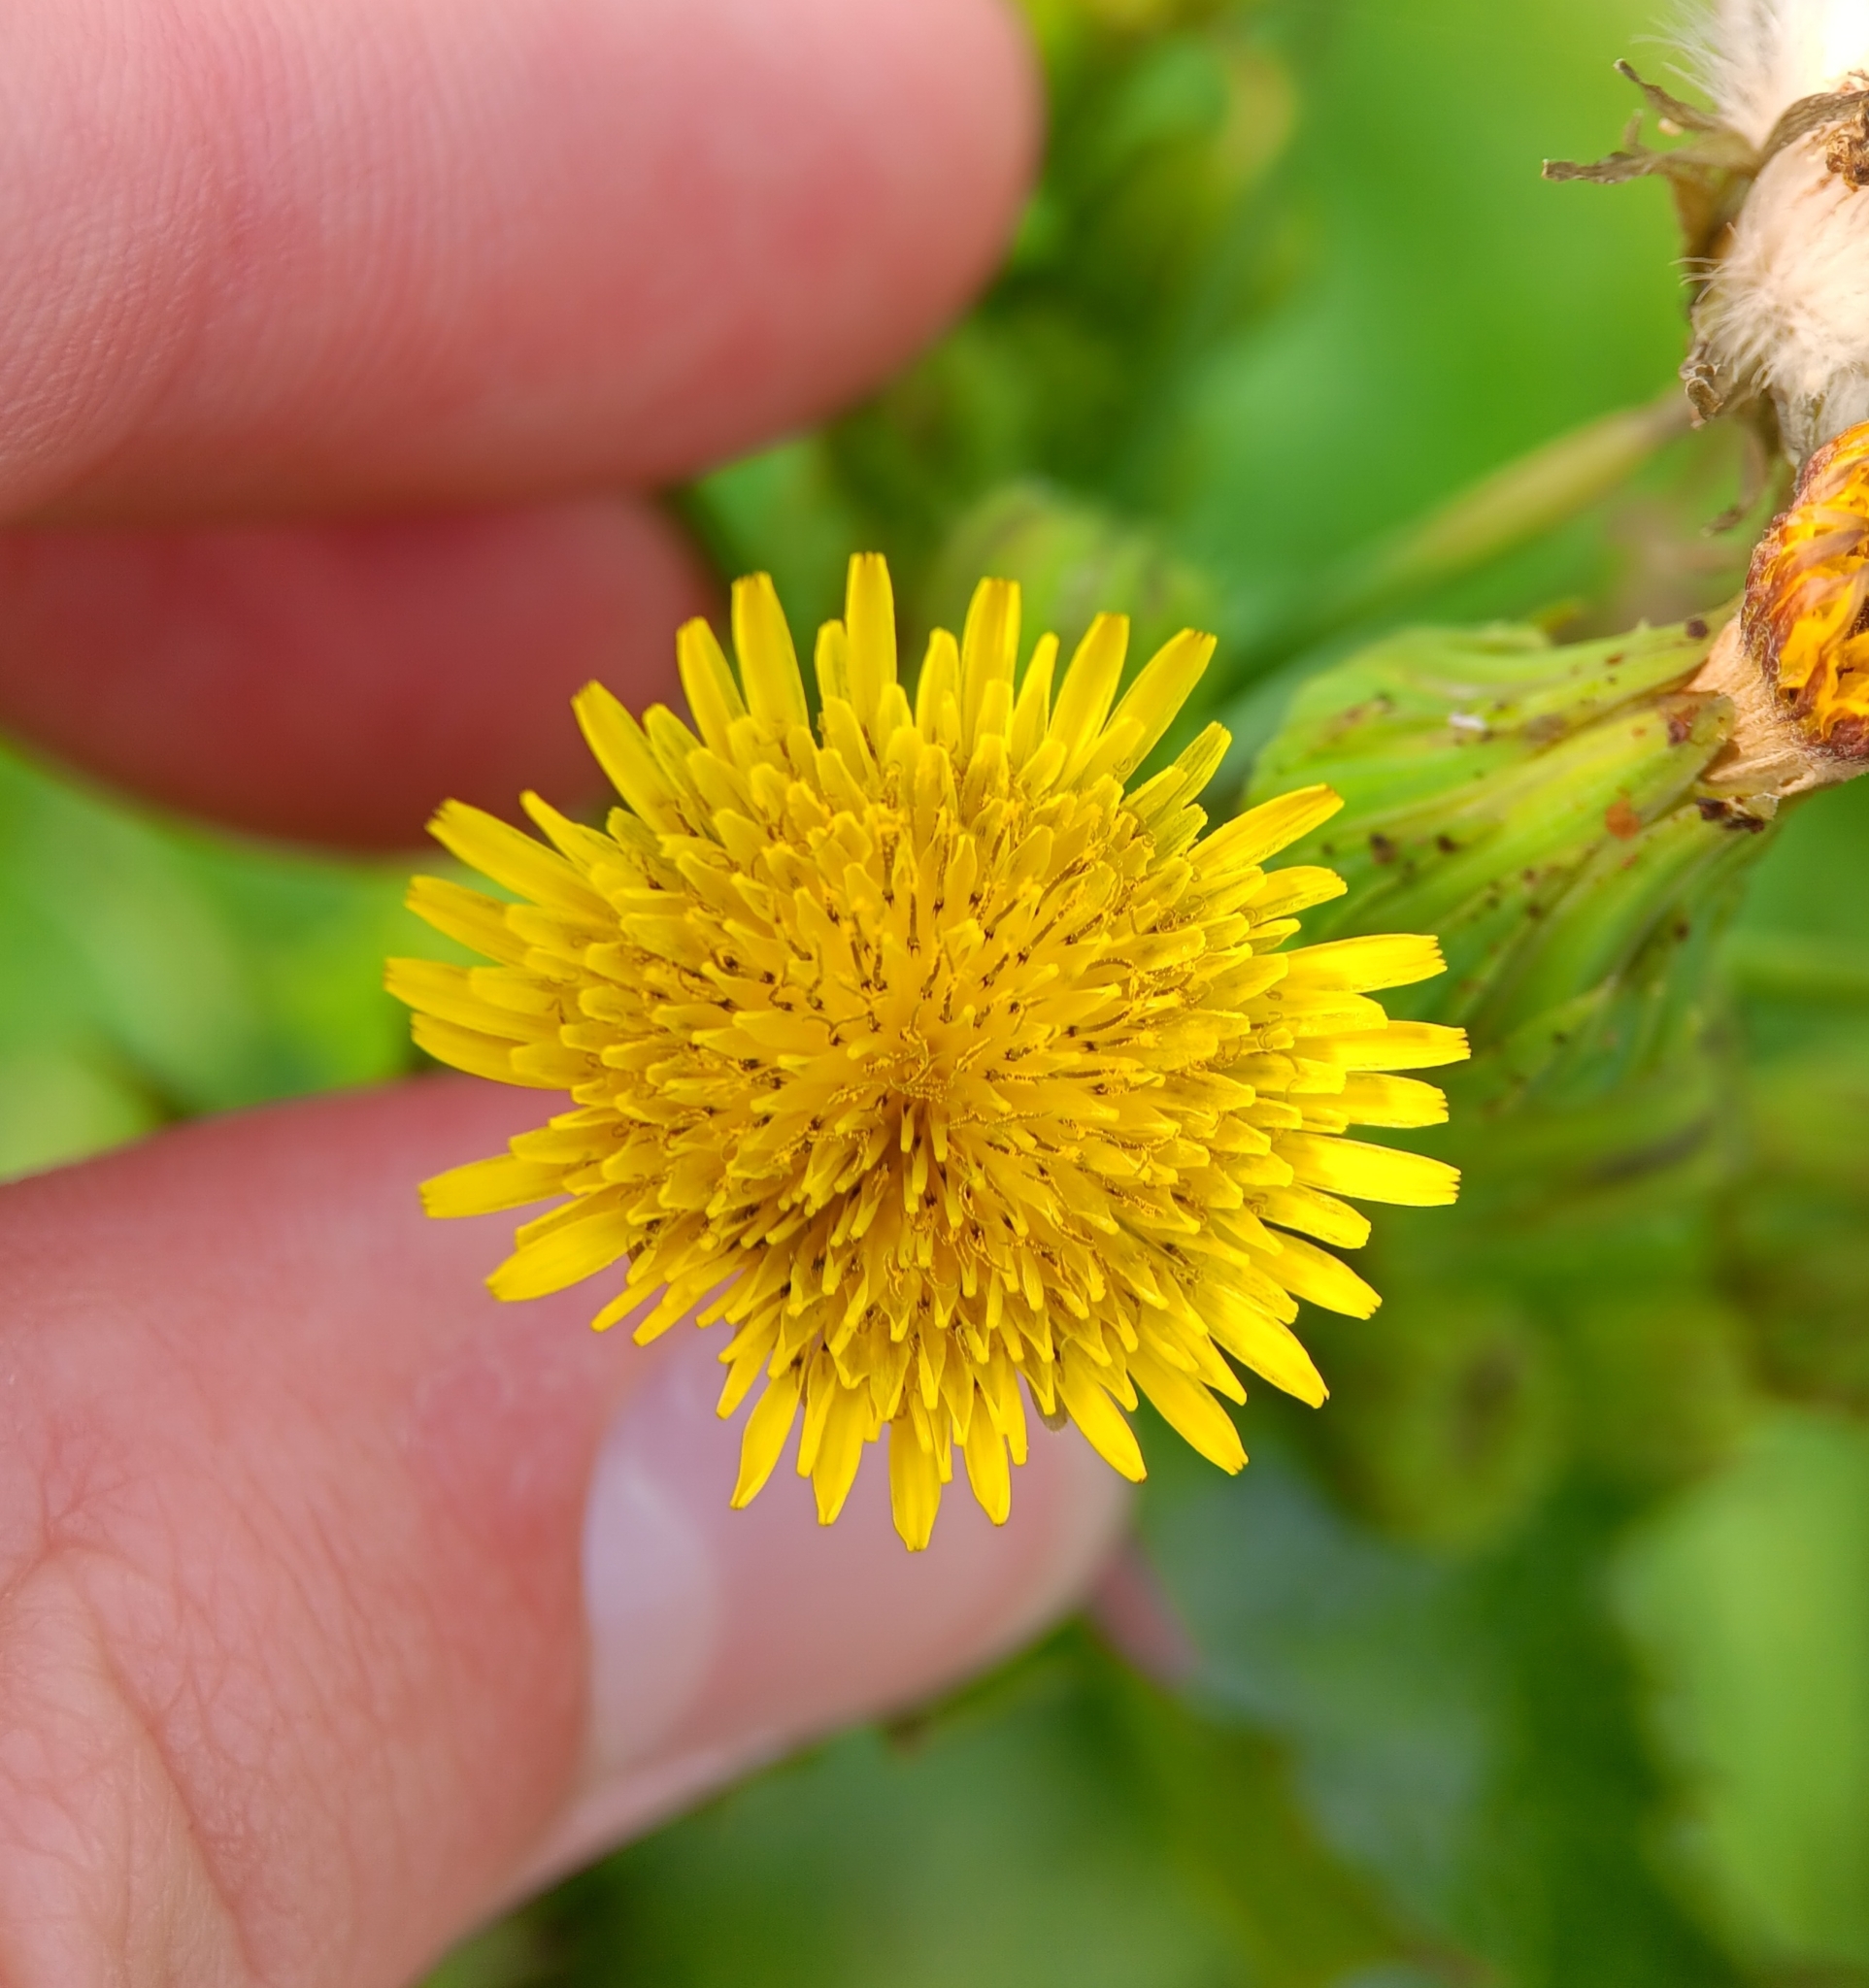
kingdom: Plantae
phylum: Tracheophyta
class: Magnoliopsida
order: Asterales
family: Asteraceae
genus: Sonchus
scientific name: Sonchus asper
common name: Prickly sow-thistle
